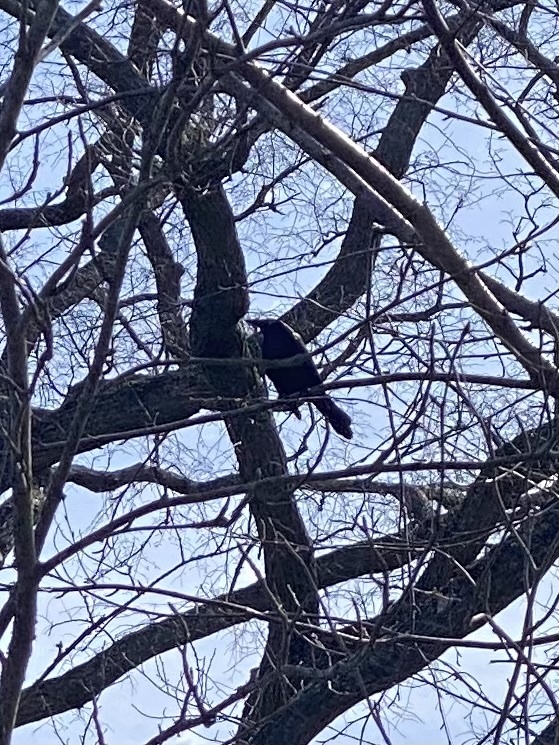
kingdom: Animalia
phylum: Chordata
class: Aves
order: Passeriformes
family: Icteridae
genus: Quiscalus
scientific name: Quiscalus quiscula
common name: Common grackle
